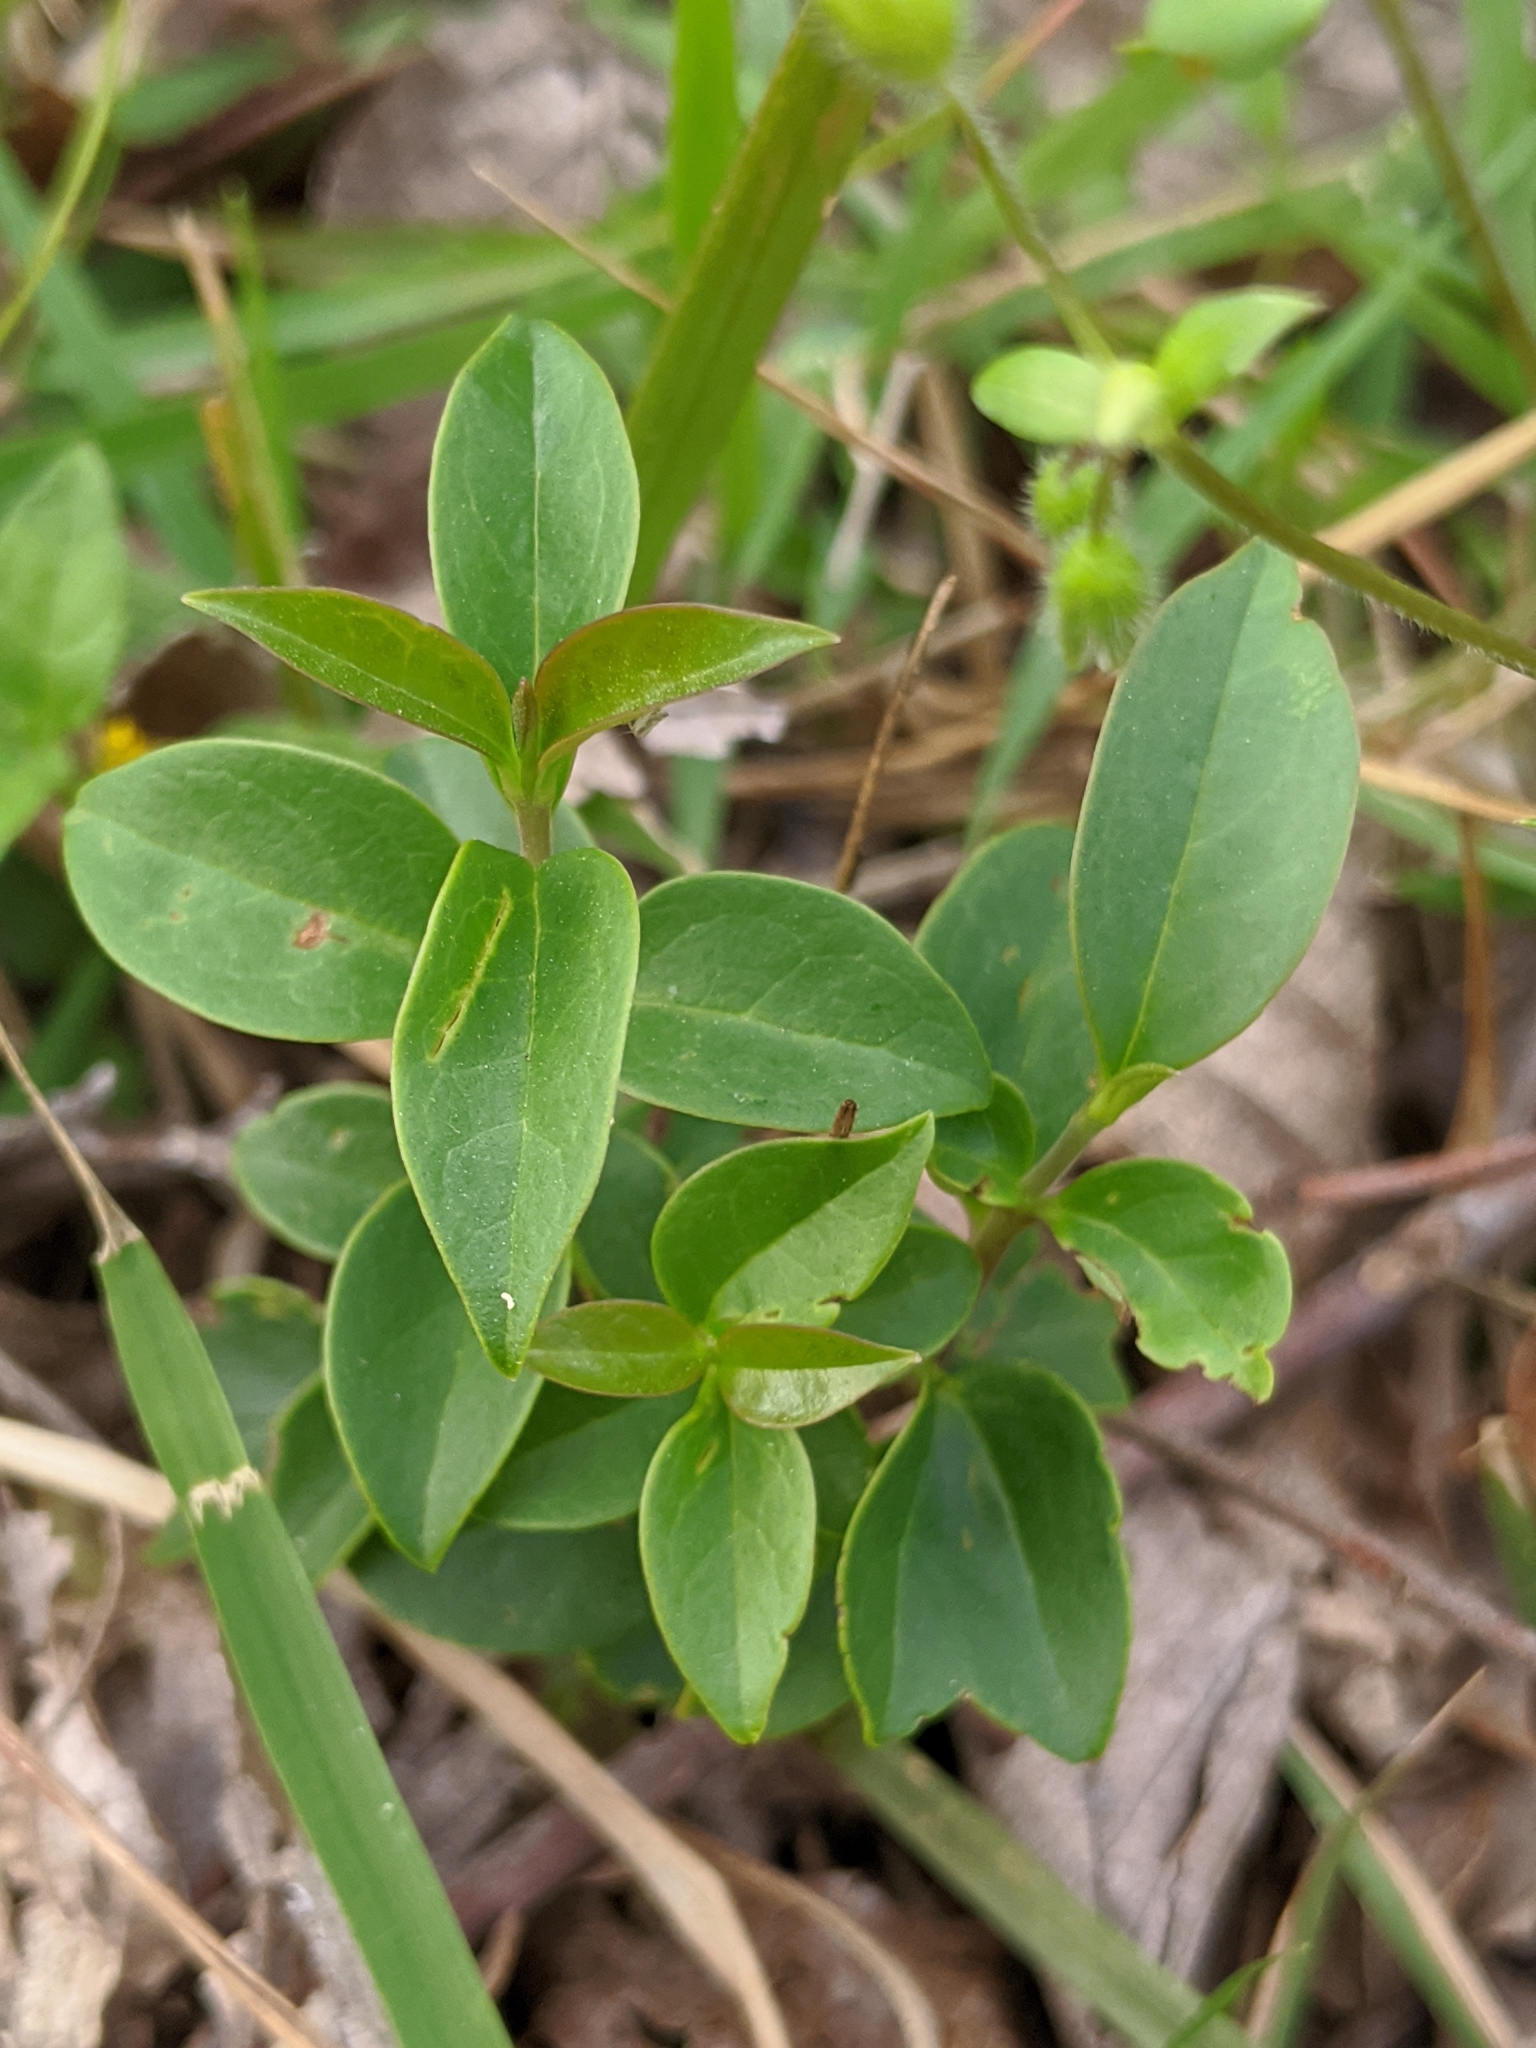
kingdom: Plantae
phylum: Tracheophyta
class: Magnoliopsida
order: Lamiales
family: Oleaceae
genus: Ligustrum
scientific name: Ligustrum lucidum
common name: Glossy privet
